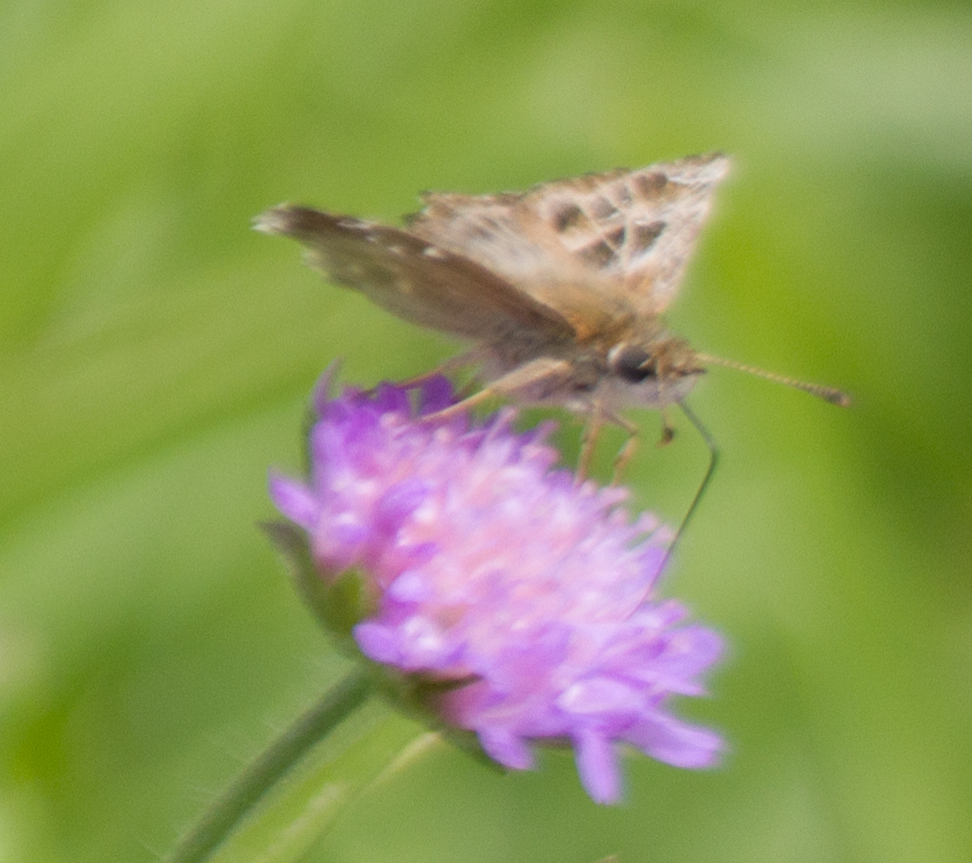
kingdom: Animalia
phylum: Arthropoda
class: Insecta
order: Lepidoptera
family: Hesperiidae
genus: Carcharodus
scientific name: Carcharodus alceae
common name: Mallow skipper
